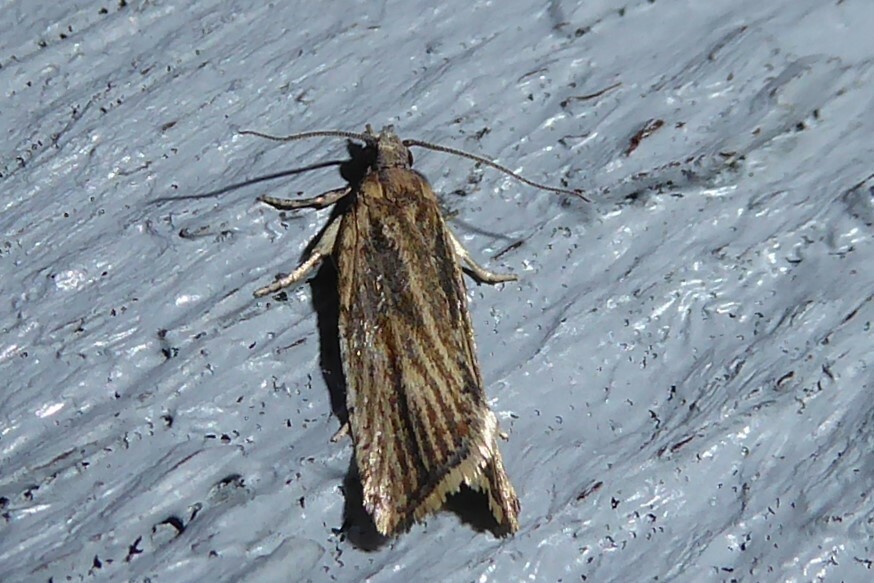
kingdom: Animalia
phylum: Arthropoda
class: Insecta
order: Lepidoptera
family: Tortricidae
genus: Capua
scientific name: Capua semiferana
